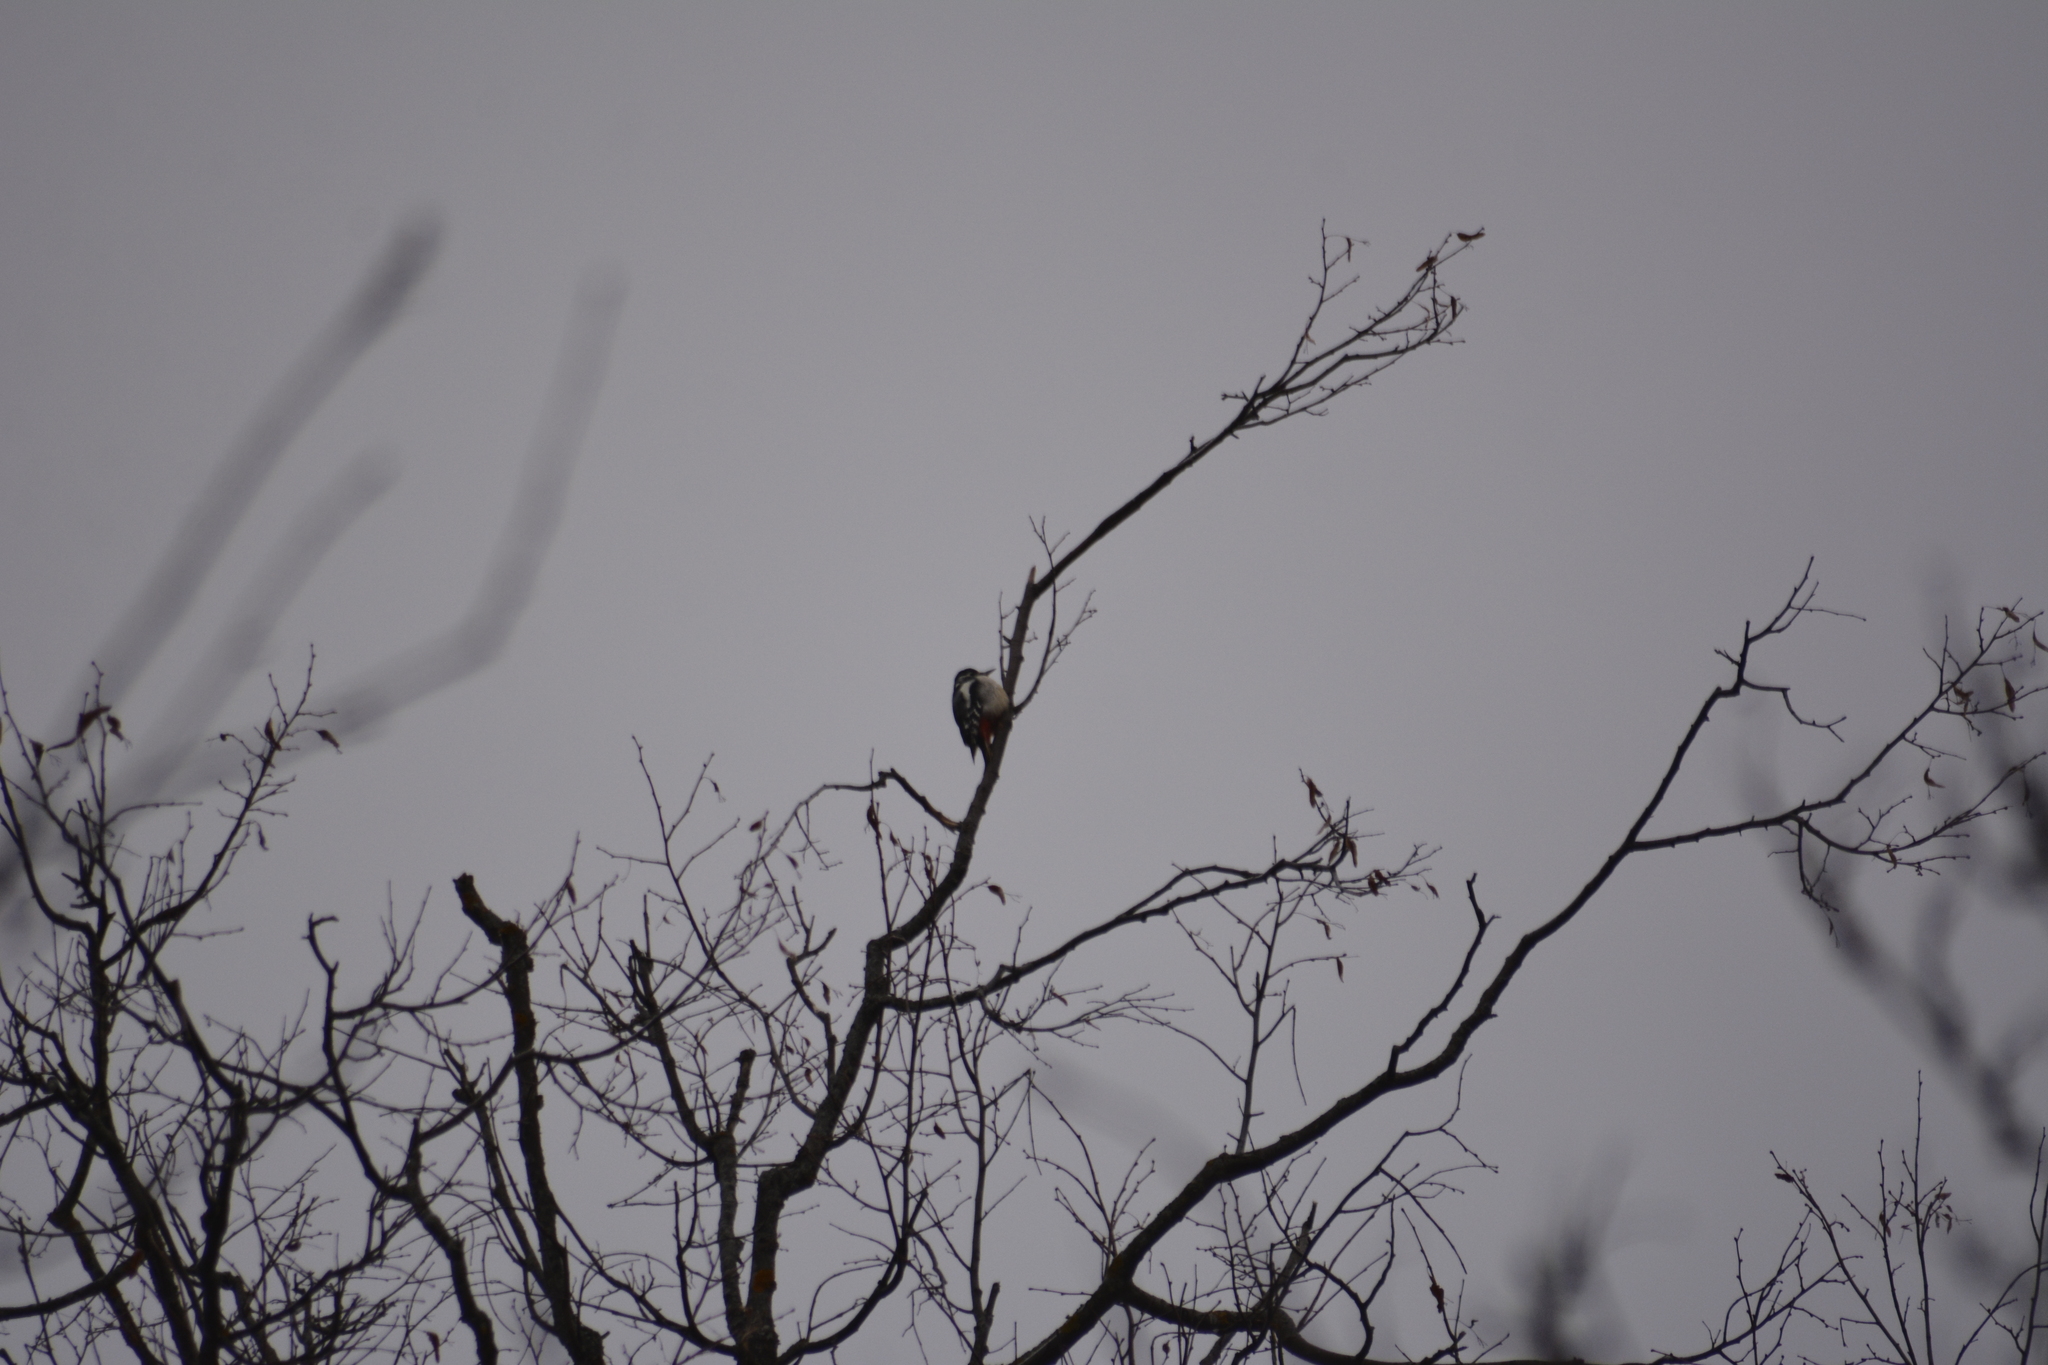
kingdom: Animalia
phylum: Chordata
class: Aves
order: Piciformes
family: Picidae
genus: Dendrocopos
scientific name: Dendrocopos major
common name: Great spotted woodpecker
